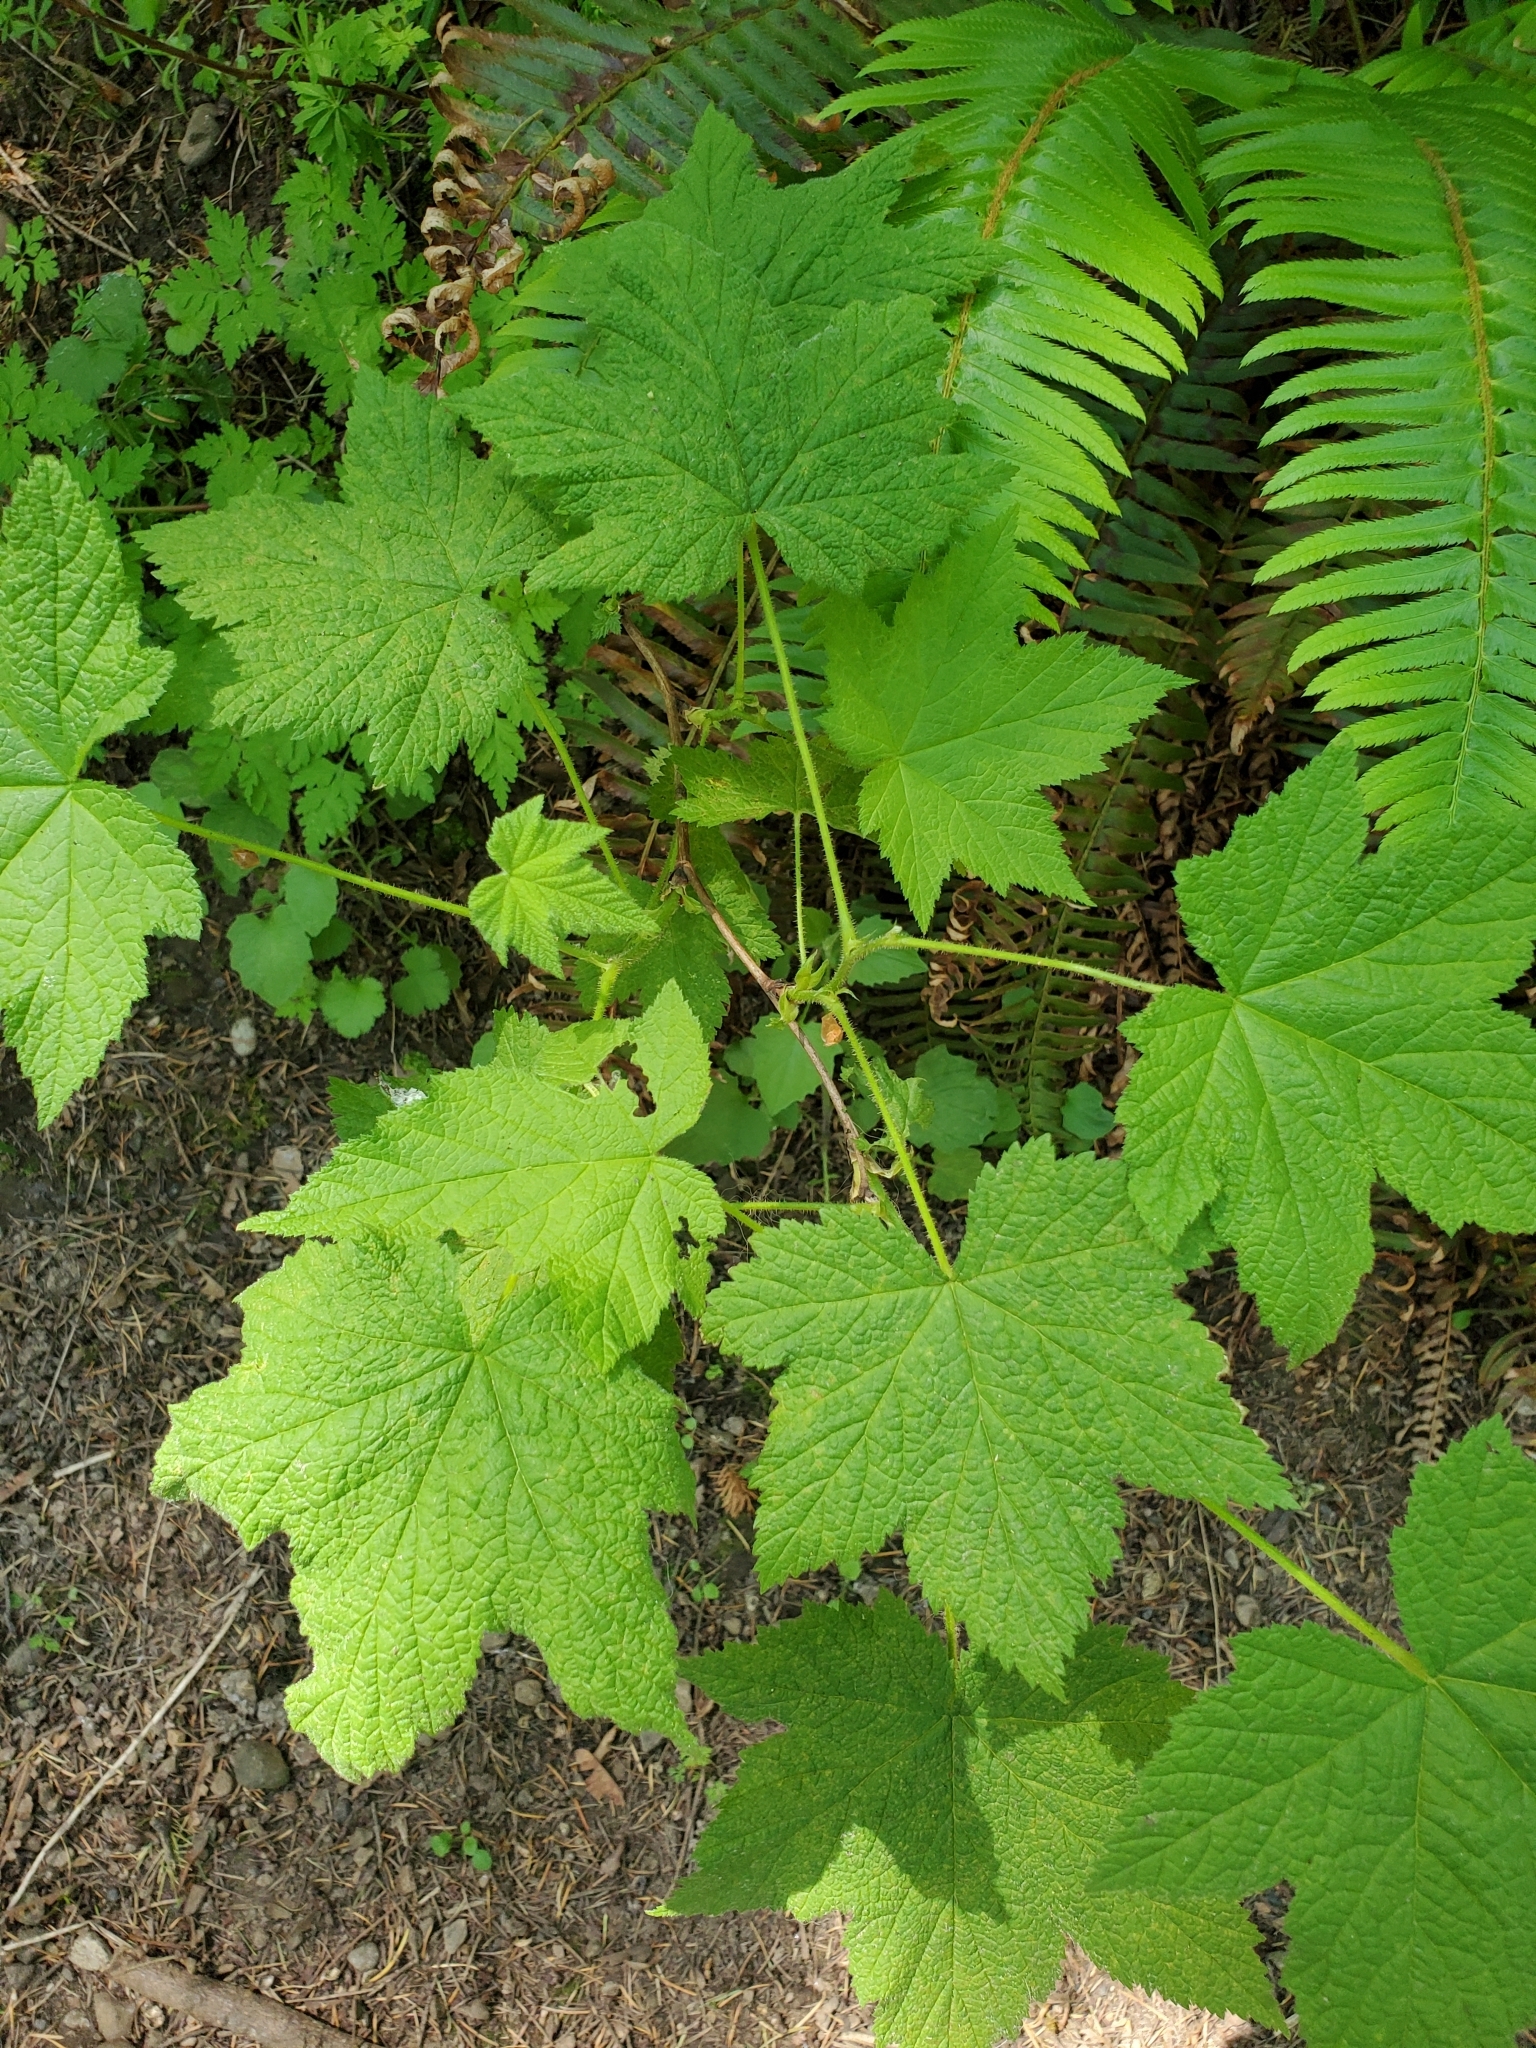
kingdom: Plantae
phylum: Tracheophyta
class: Magnoliopsida
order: Rosales
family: Rosaceae
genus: Rubus
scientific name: Rubus parviflorus
